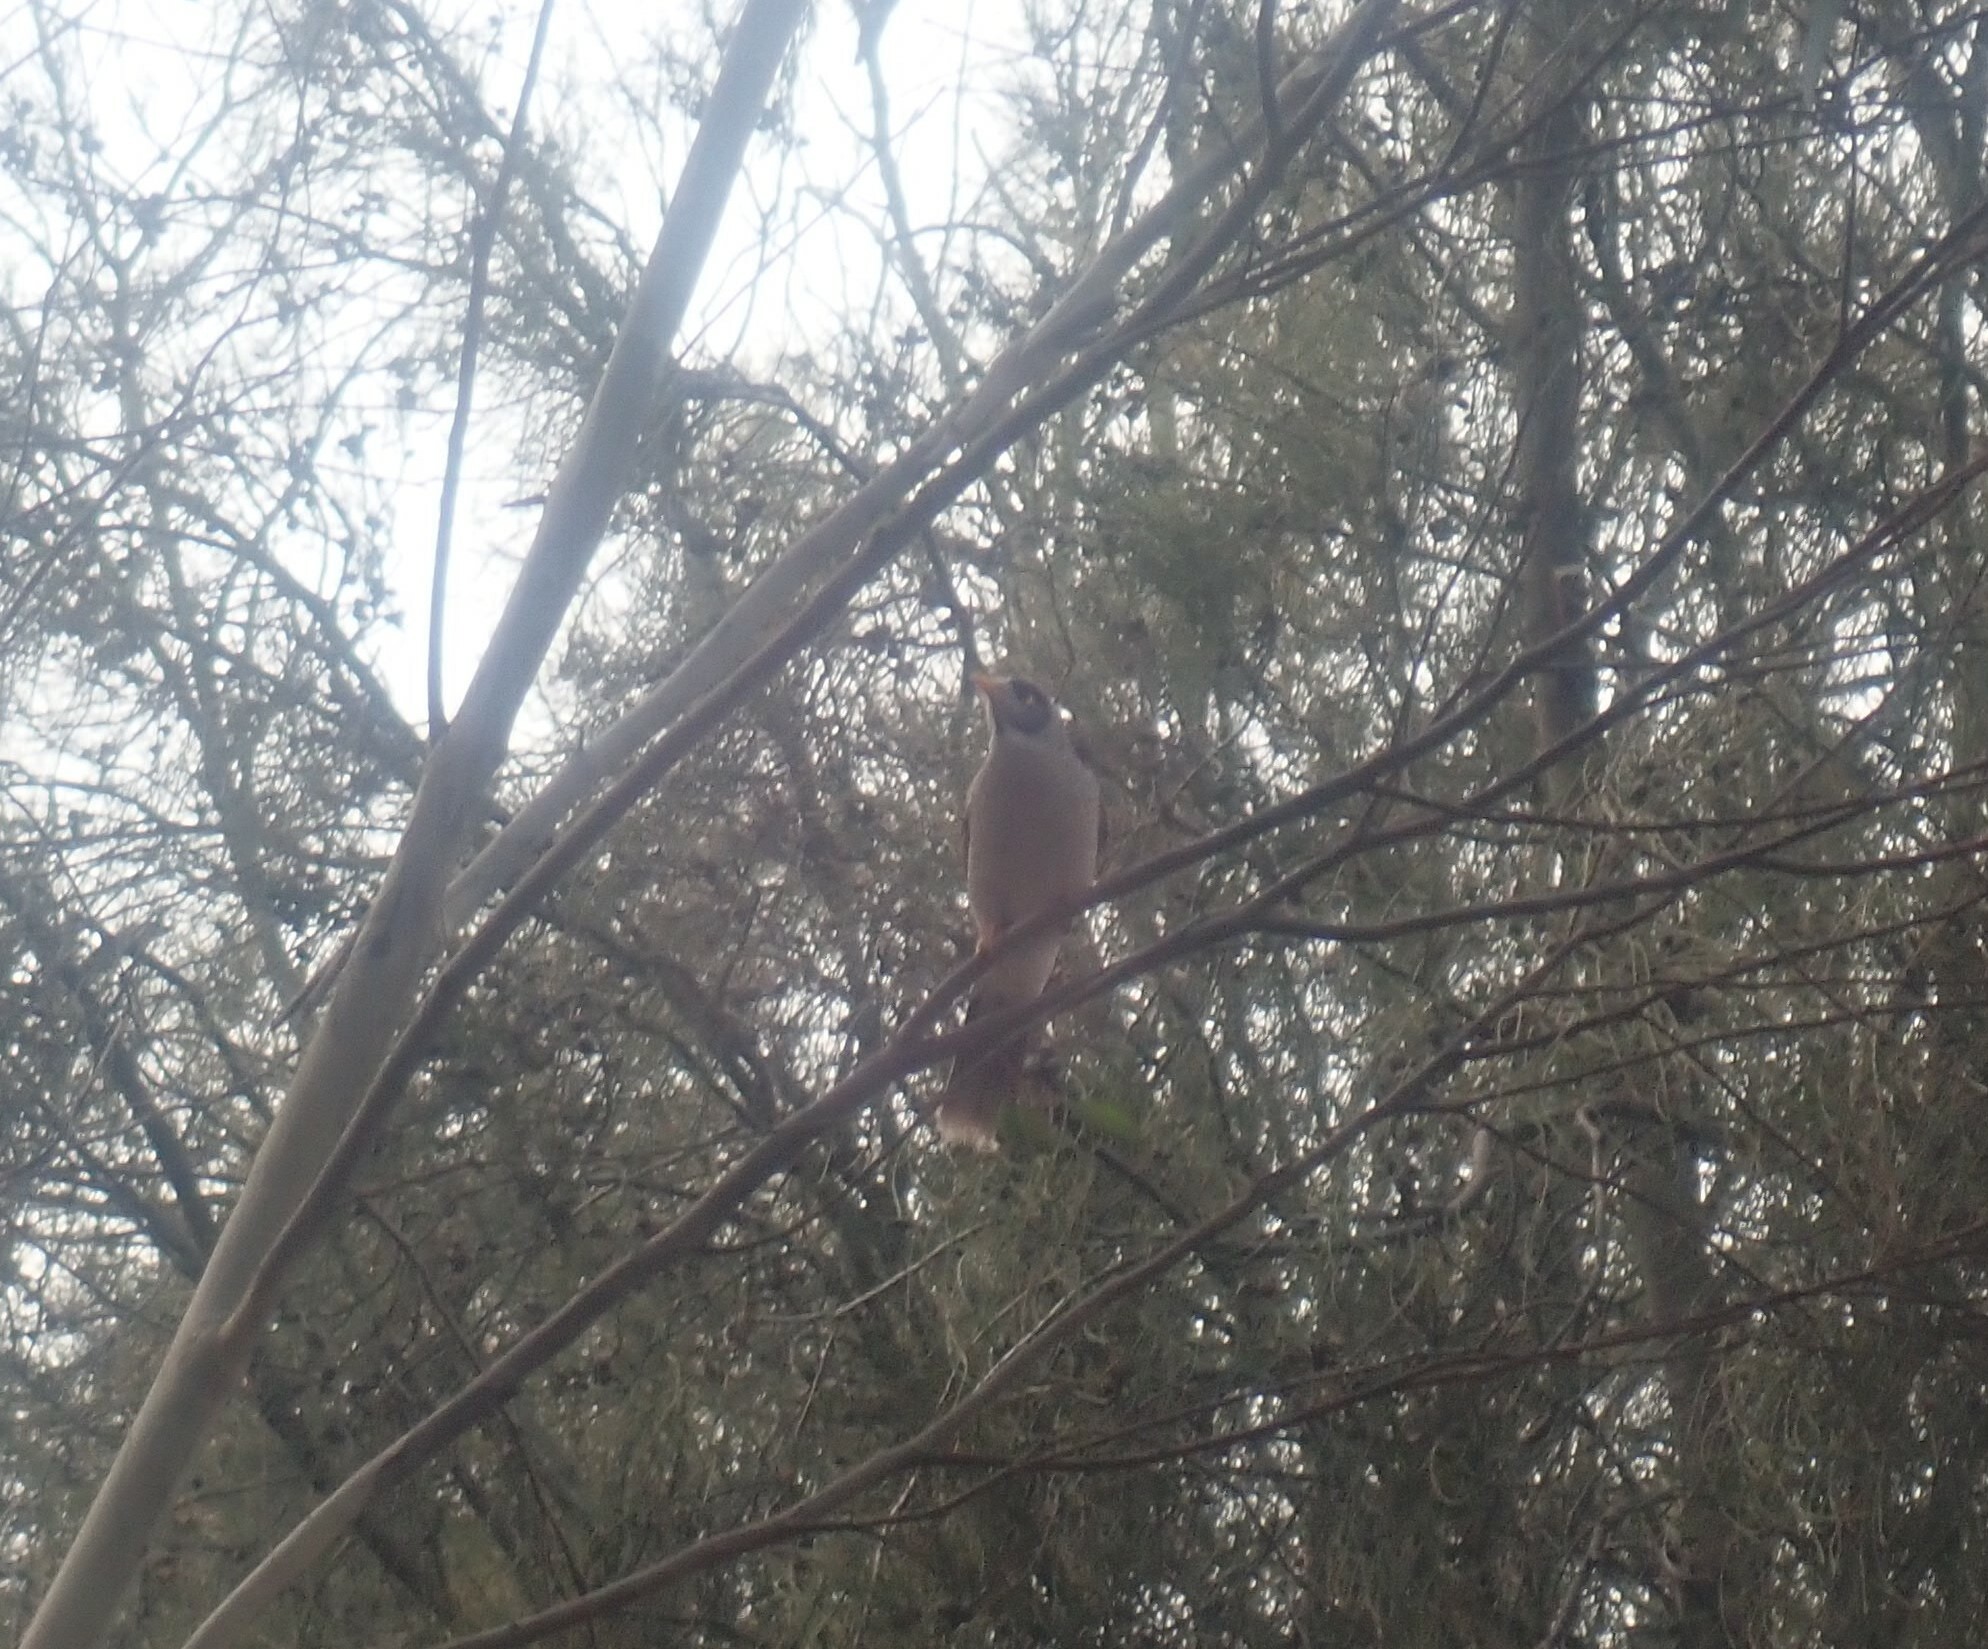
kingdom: Animalia
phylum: Chordata
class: Aves
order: Passeriformes
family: Meliphagidae
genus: Manorina
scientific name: Manorina melanocephala
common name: Noisy miner
